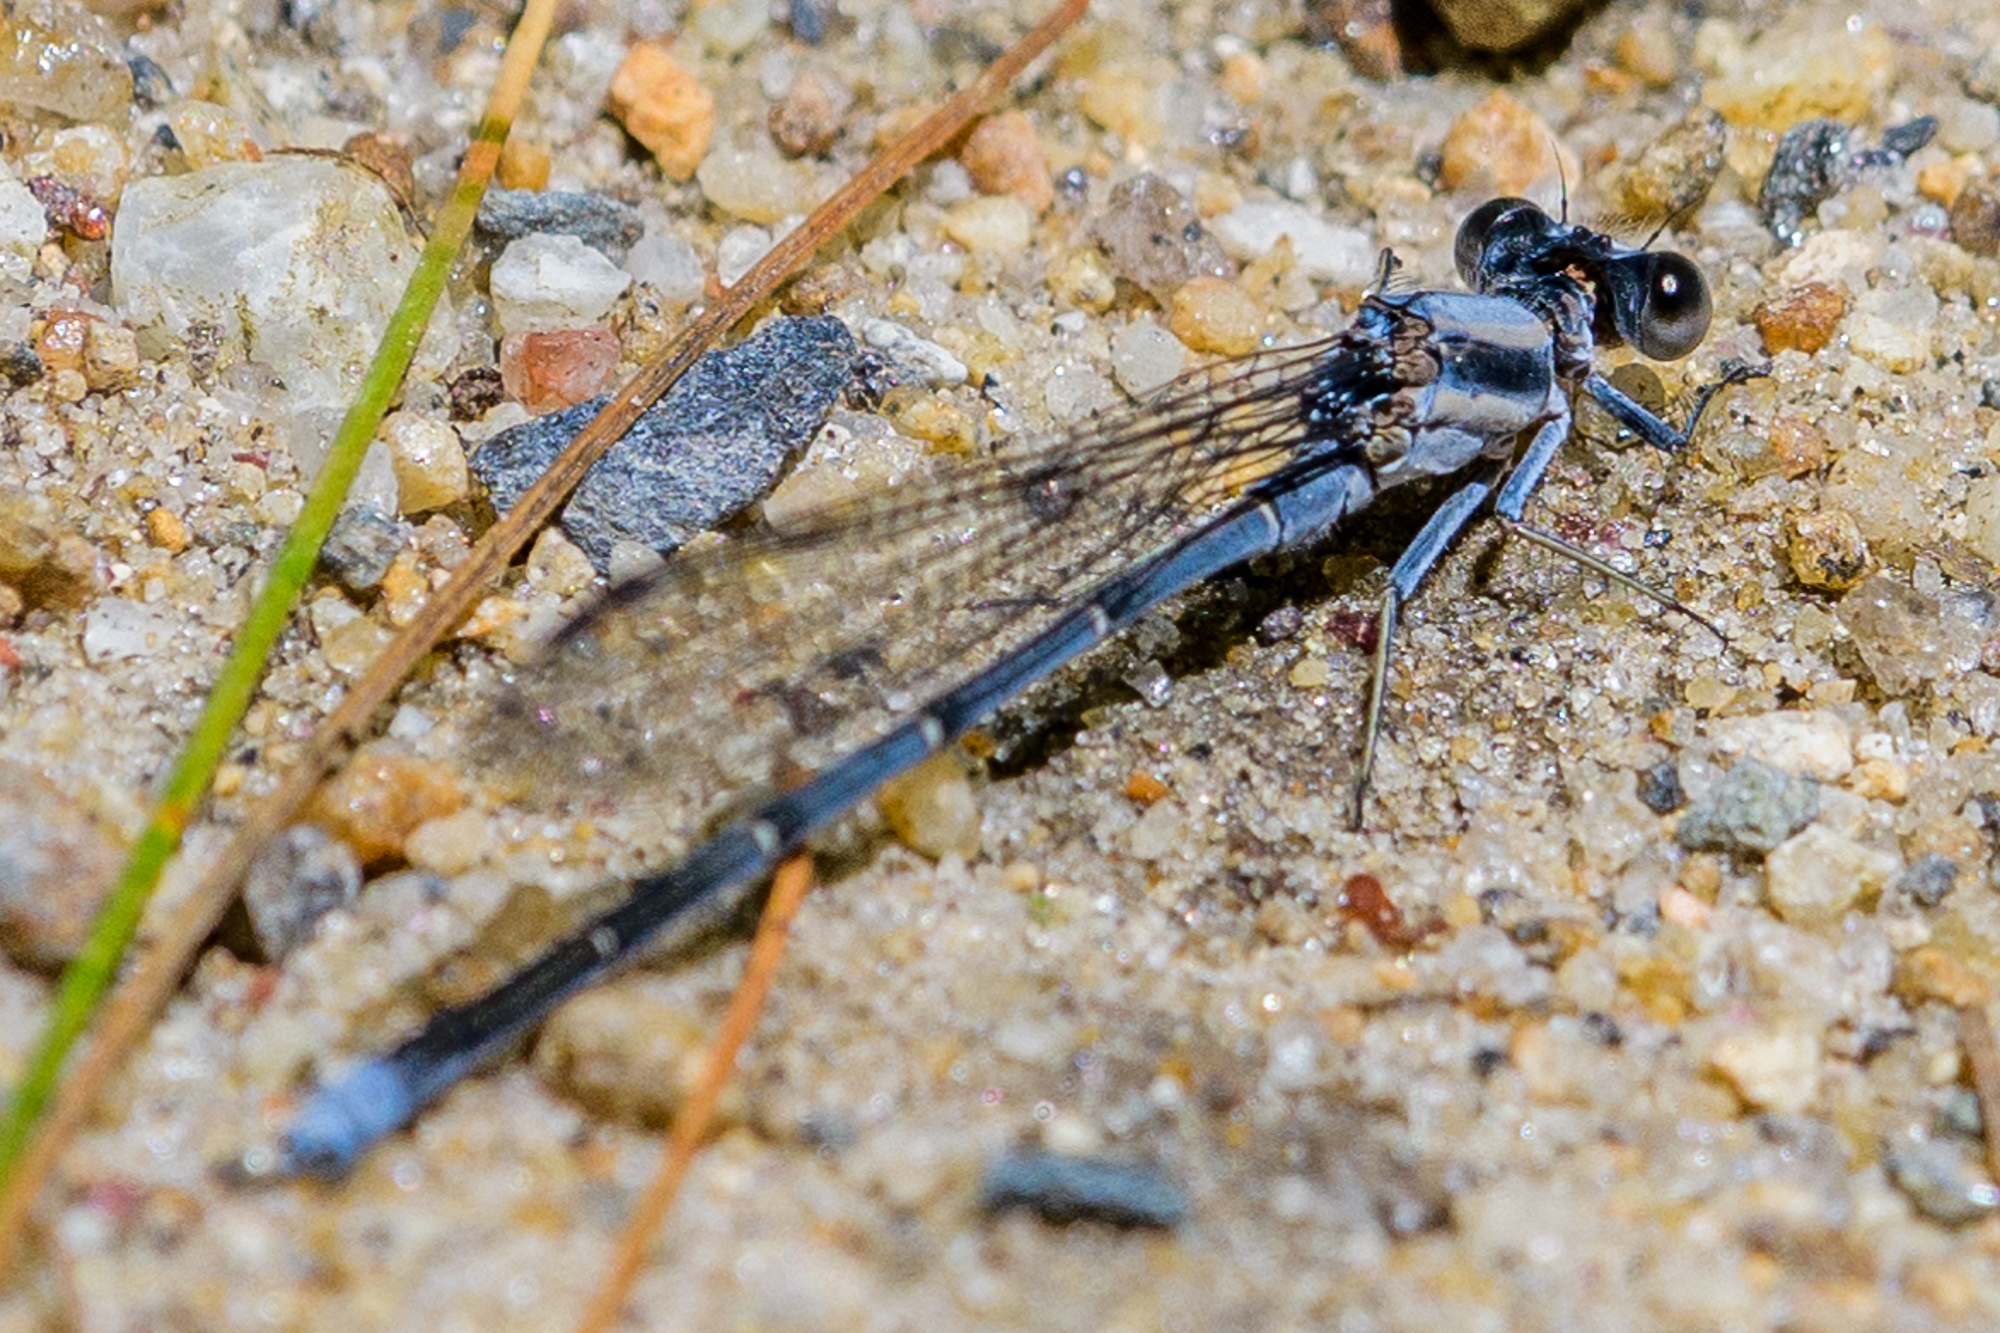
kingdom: Animalia
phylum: Arthropoda
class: Insecta
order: Odonata
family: Coenagrionidae
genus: Argia
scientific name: Argia moesta
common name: Powdered dancer
